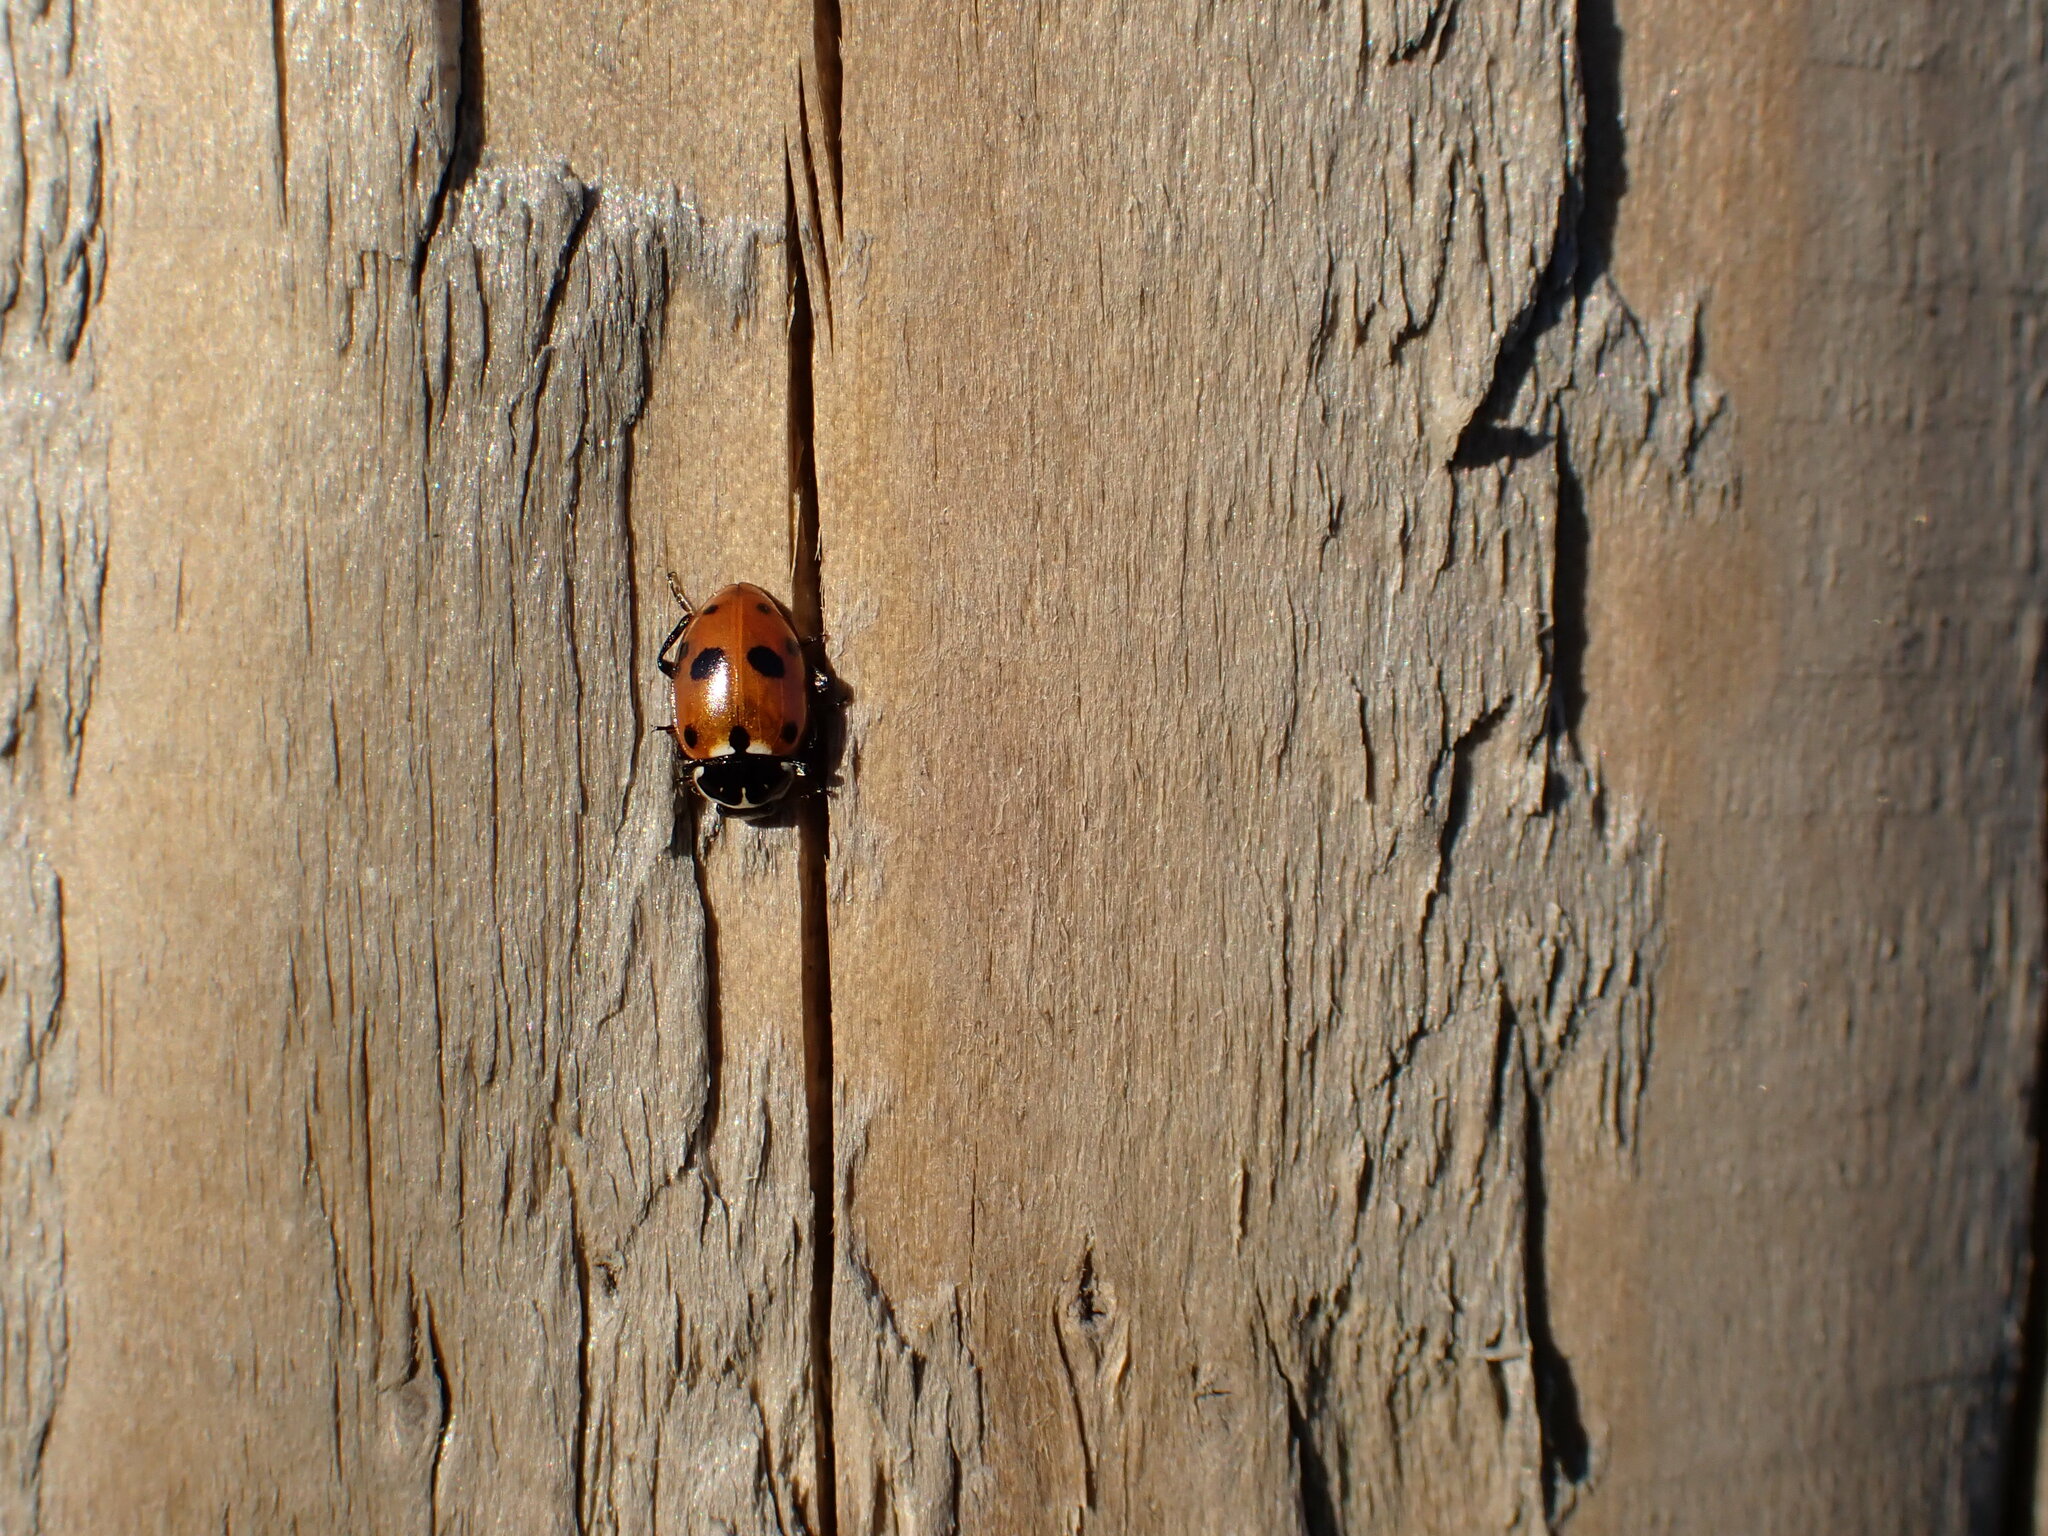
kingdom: Animalia
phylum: Arthropoda
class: Insecta
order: Coleoptera
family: Coccinellidae
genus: Hippodamia
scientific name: Hippodamia variegata
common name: Ladybird beetle
